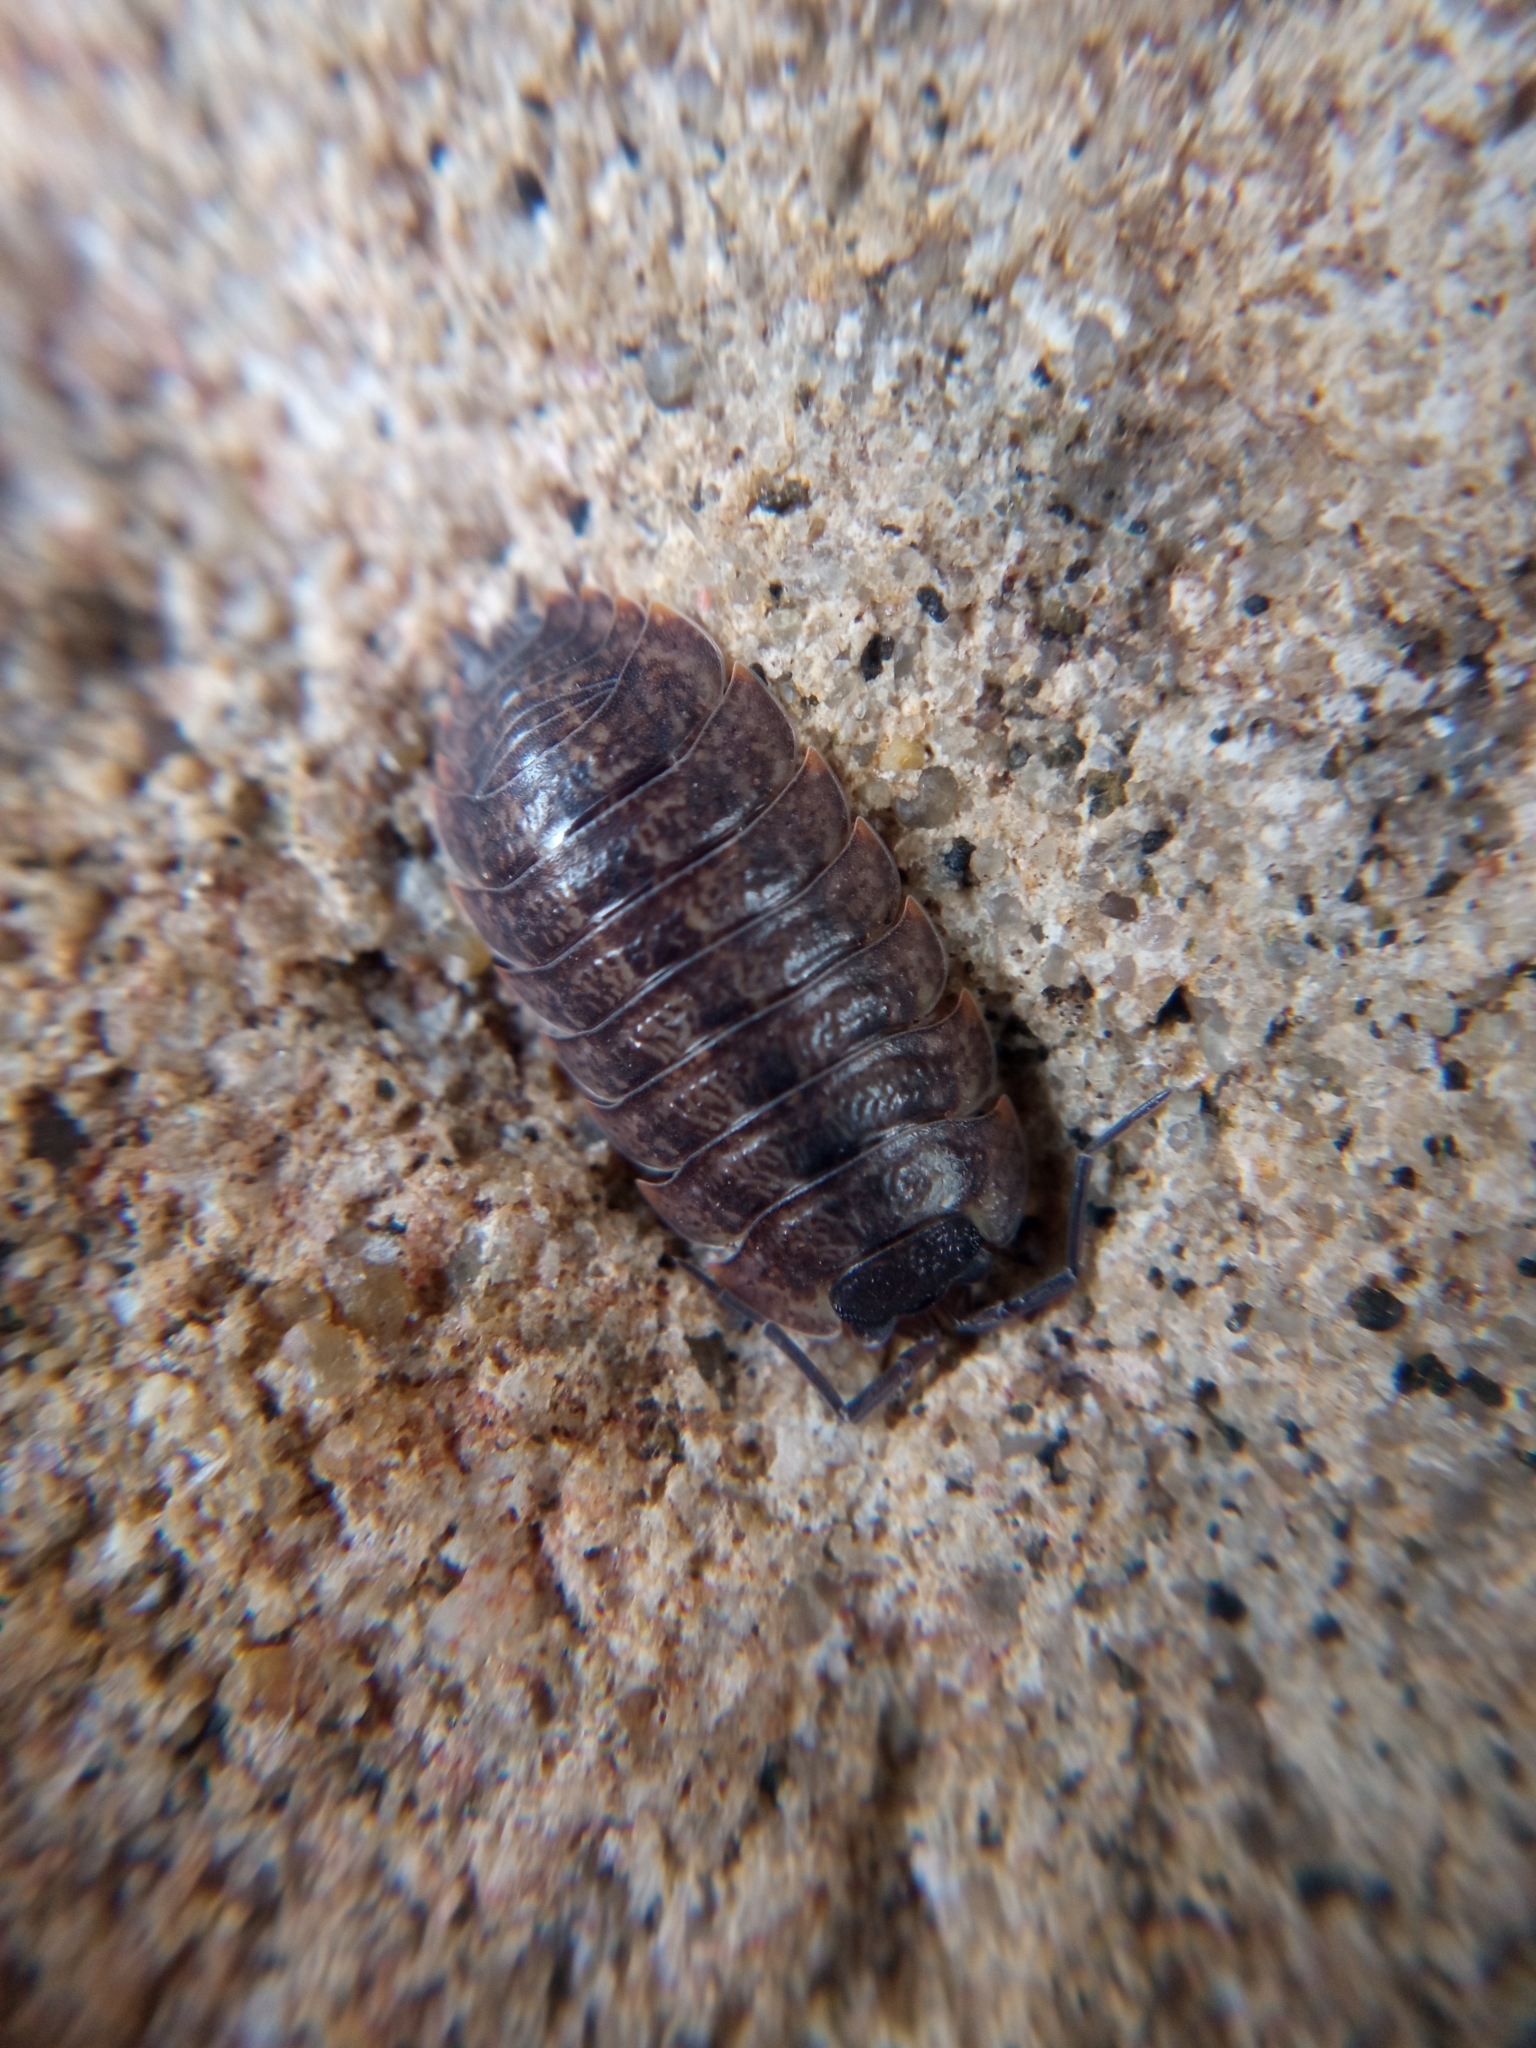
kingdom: Animalia
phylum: Arthropoda
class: Malacostraca
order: Isopoda
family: Porcellionidae
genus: Porcellio
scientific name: Porcellio montanus
